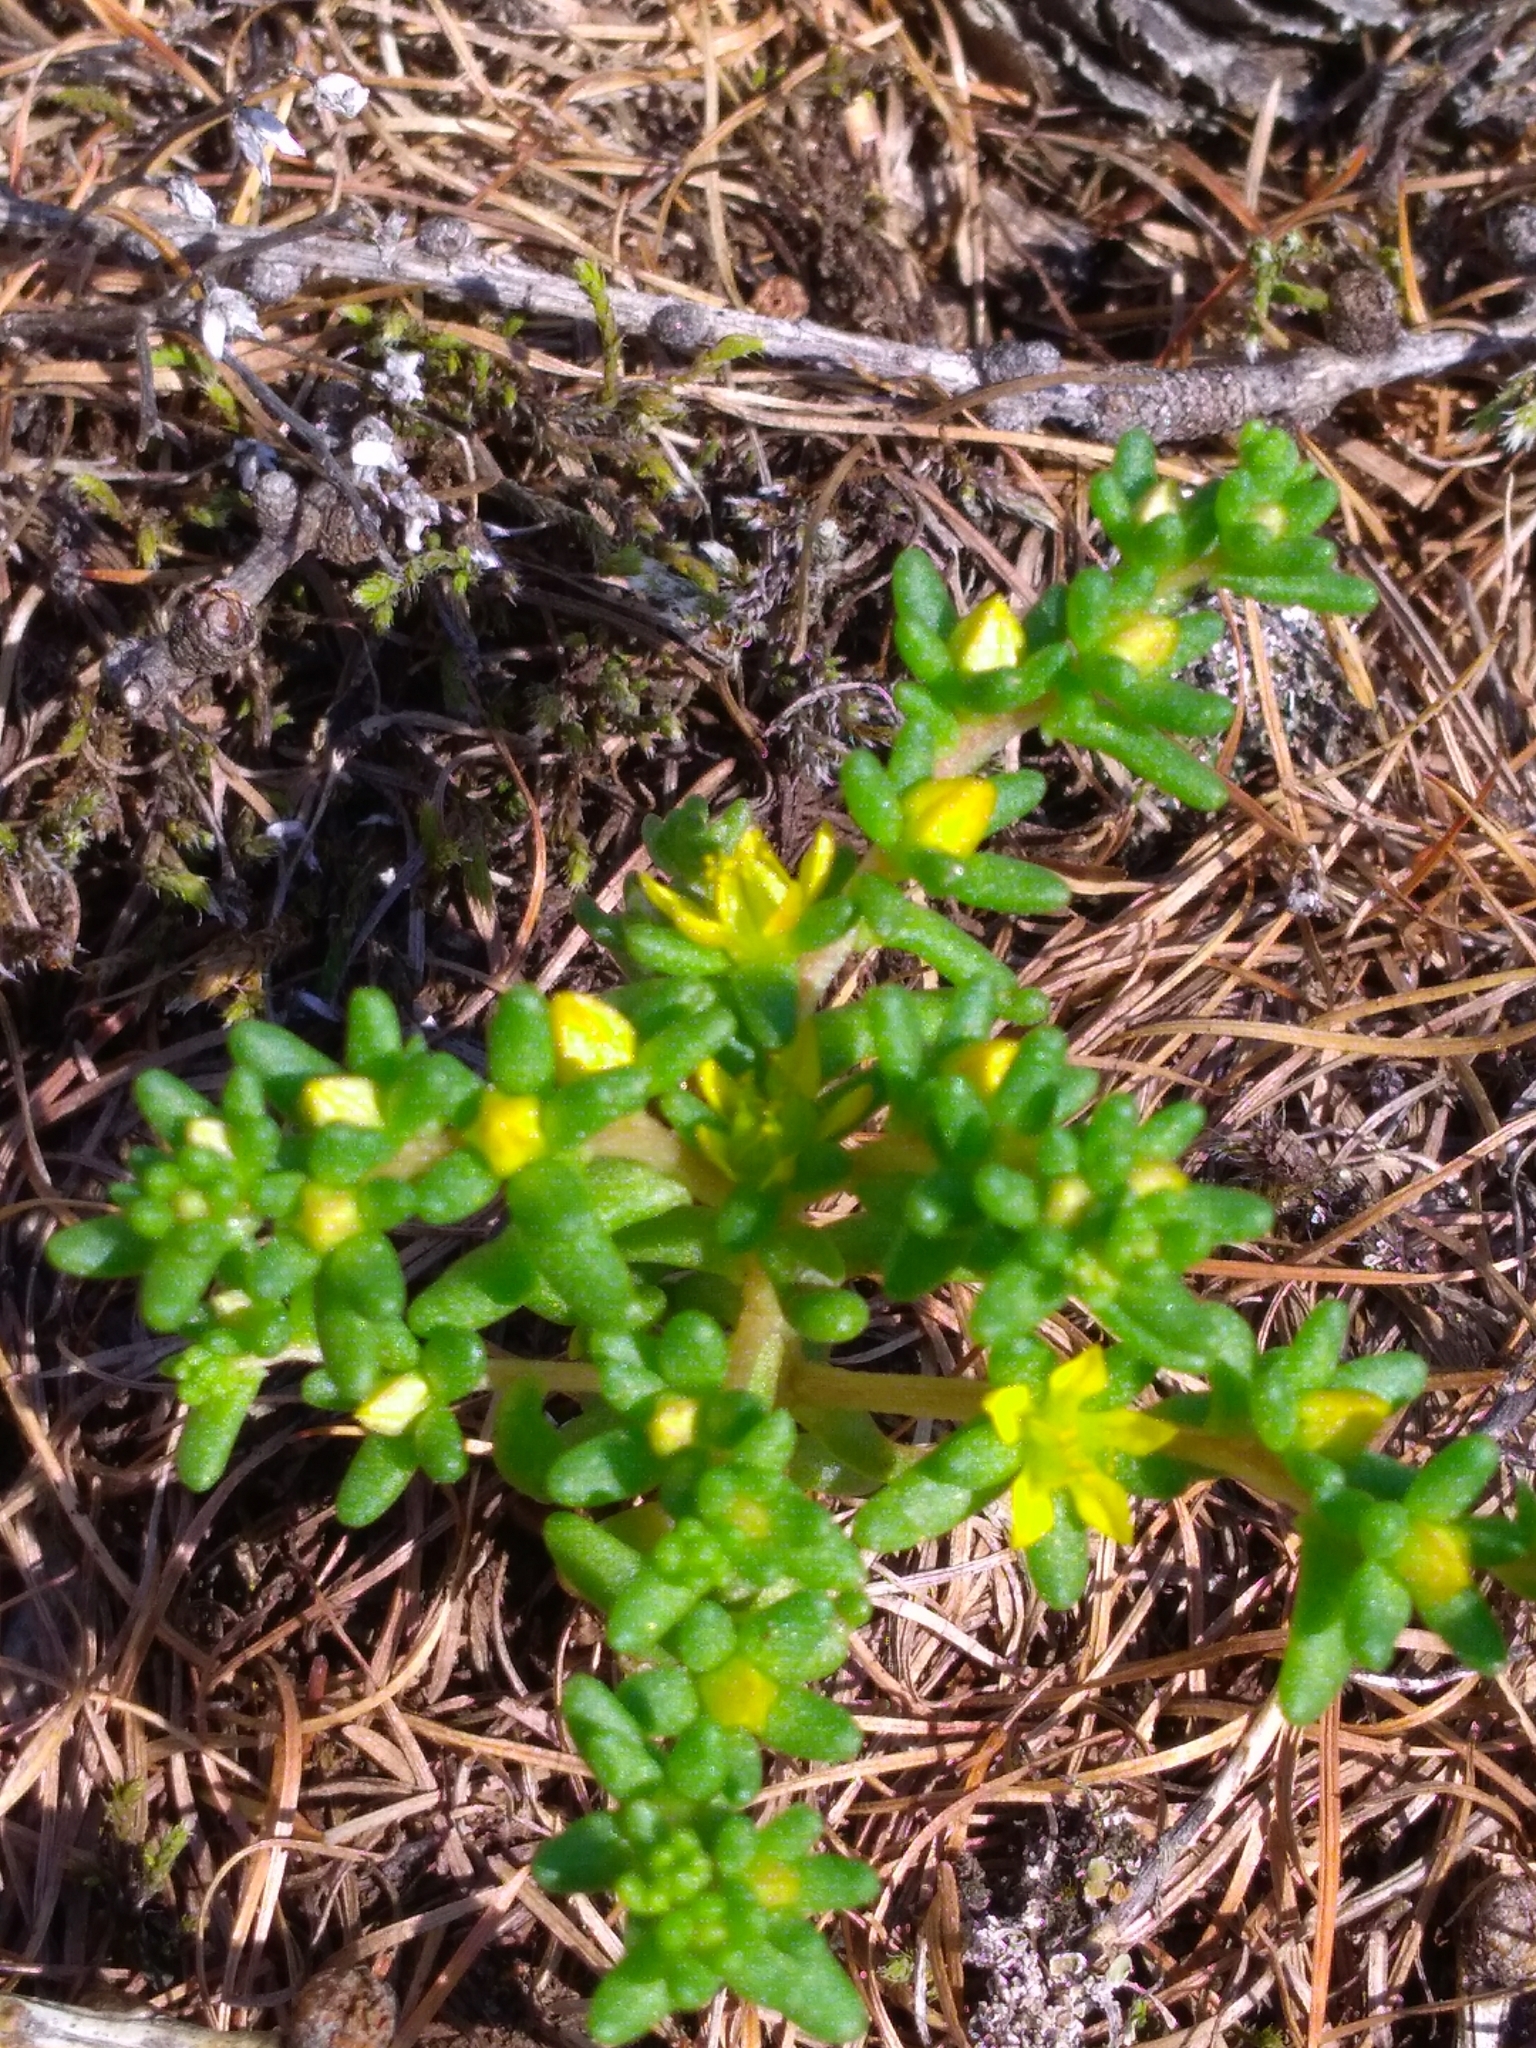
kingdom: Plantae
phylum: Tracheophyta
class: Magnoliopsida
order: Saxifragales
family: Crassulaceae
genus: Sedum
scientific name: Sedum annuum
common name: Annual stonecrop
